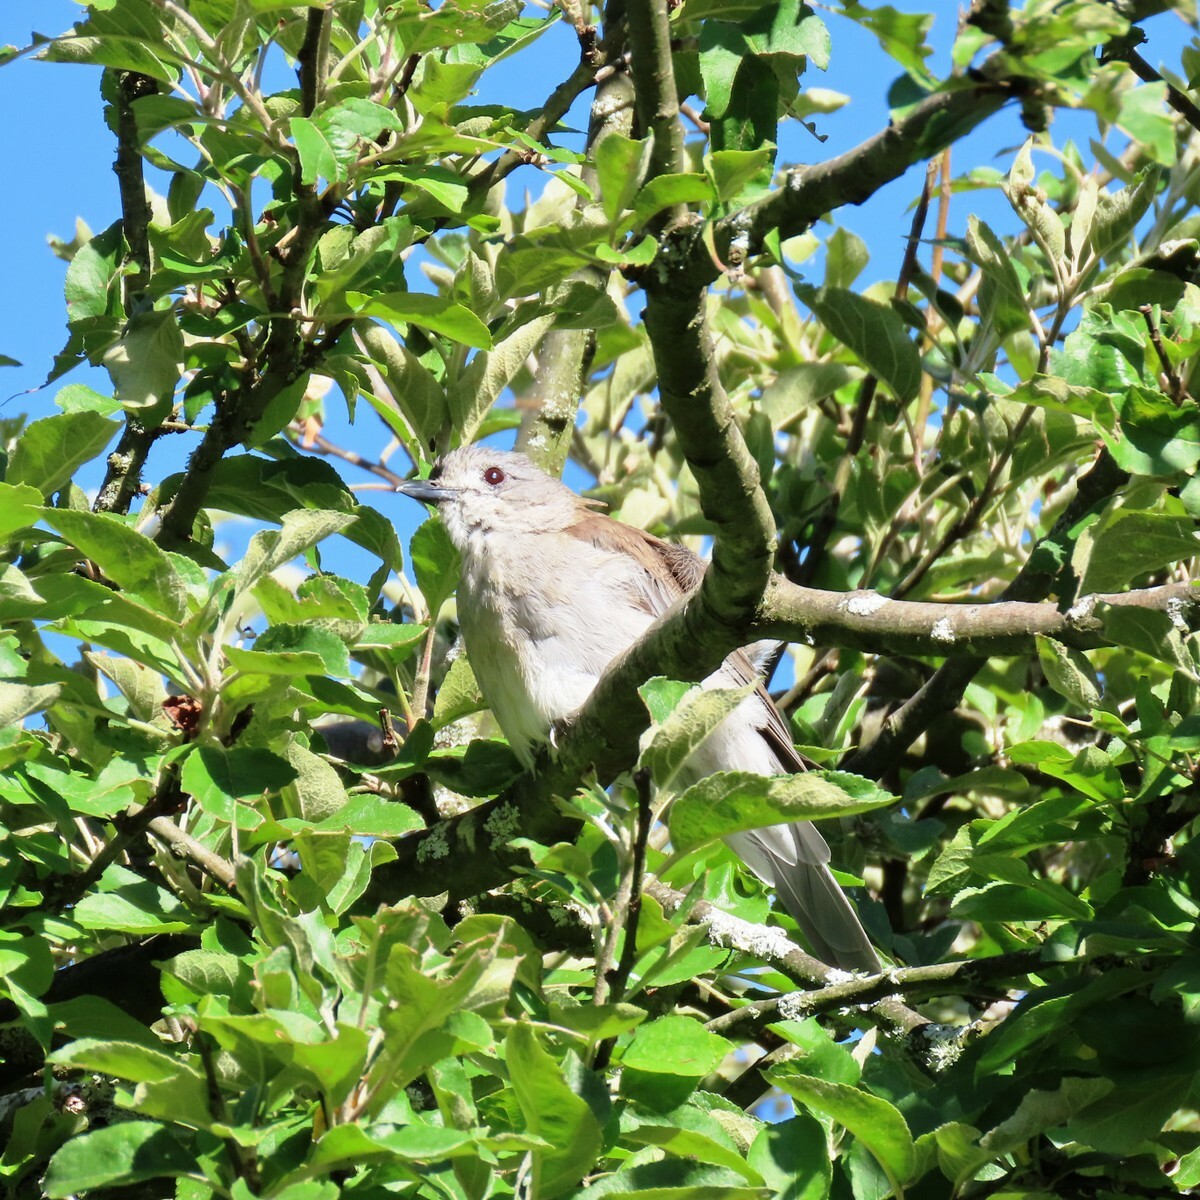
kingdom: Animalia
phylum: Chordata
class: Aves
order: Passeriformes
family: Pachycephalidae
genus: Colluricincla
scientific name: Colluricincla harmonica
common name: Grey shrikethrush
